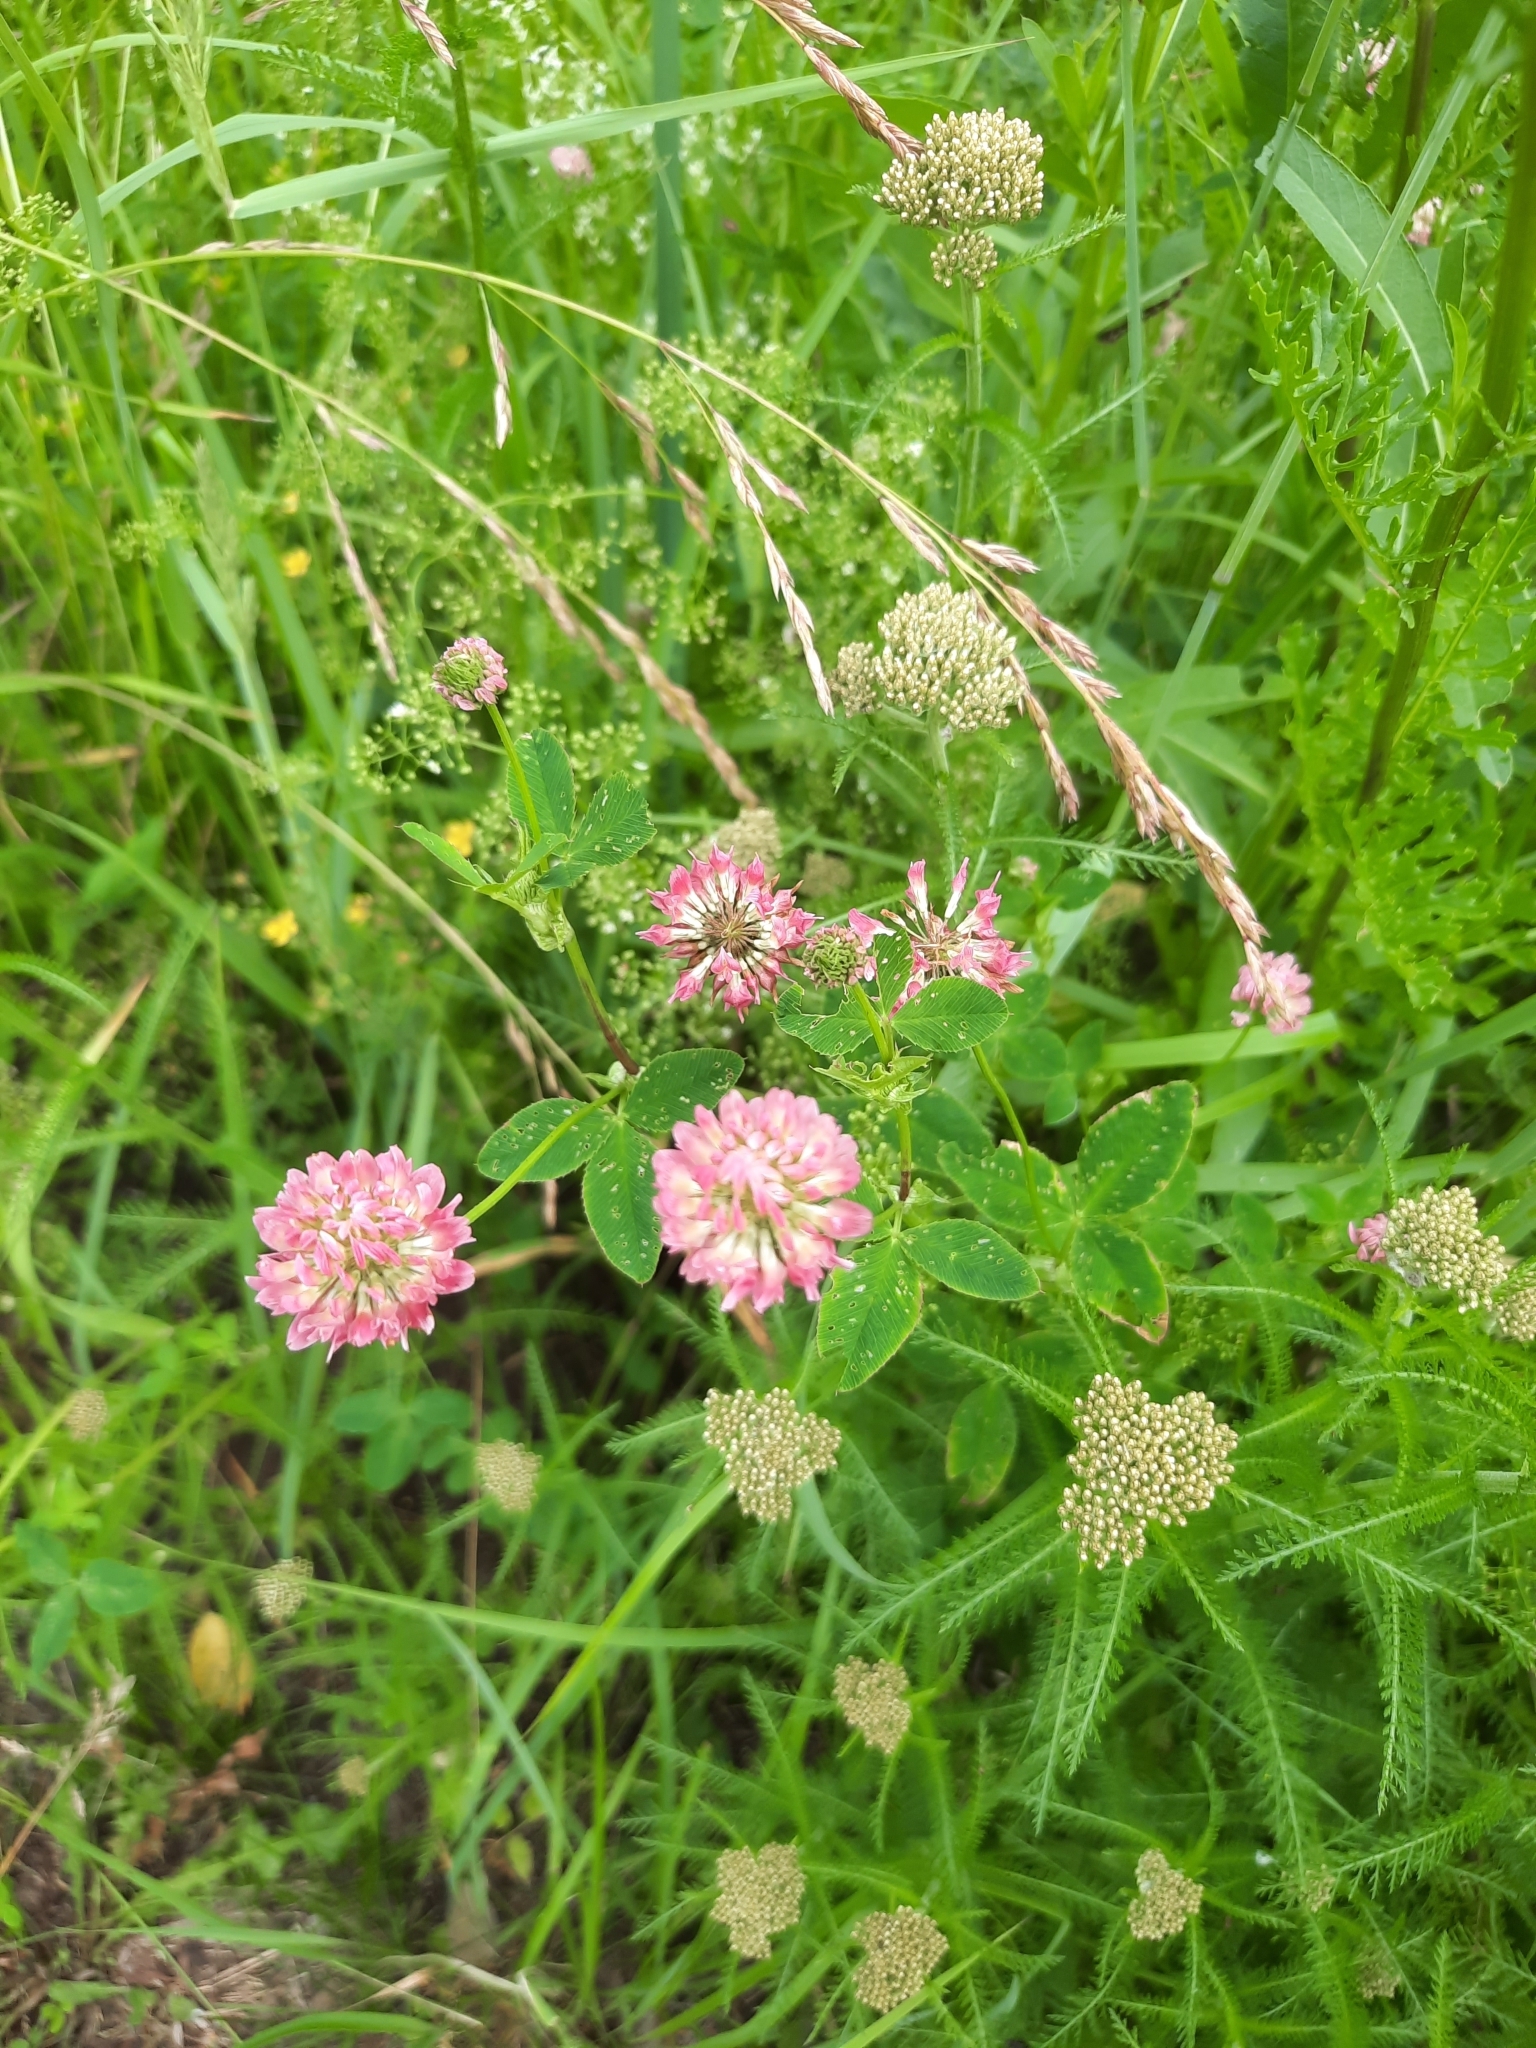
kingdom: Plantae
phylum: Tracheophyta
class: Magnoliopsida
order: Fabales
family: Fabaceae
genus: Trifolium
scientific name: Trifolium hybridum
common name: Alsike clover
